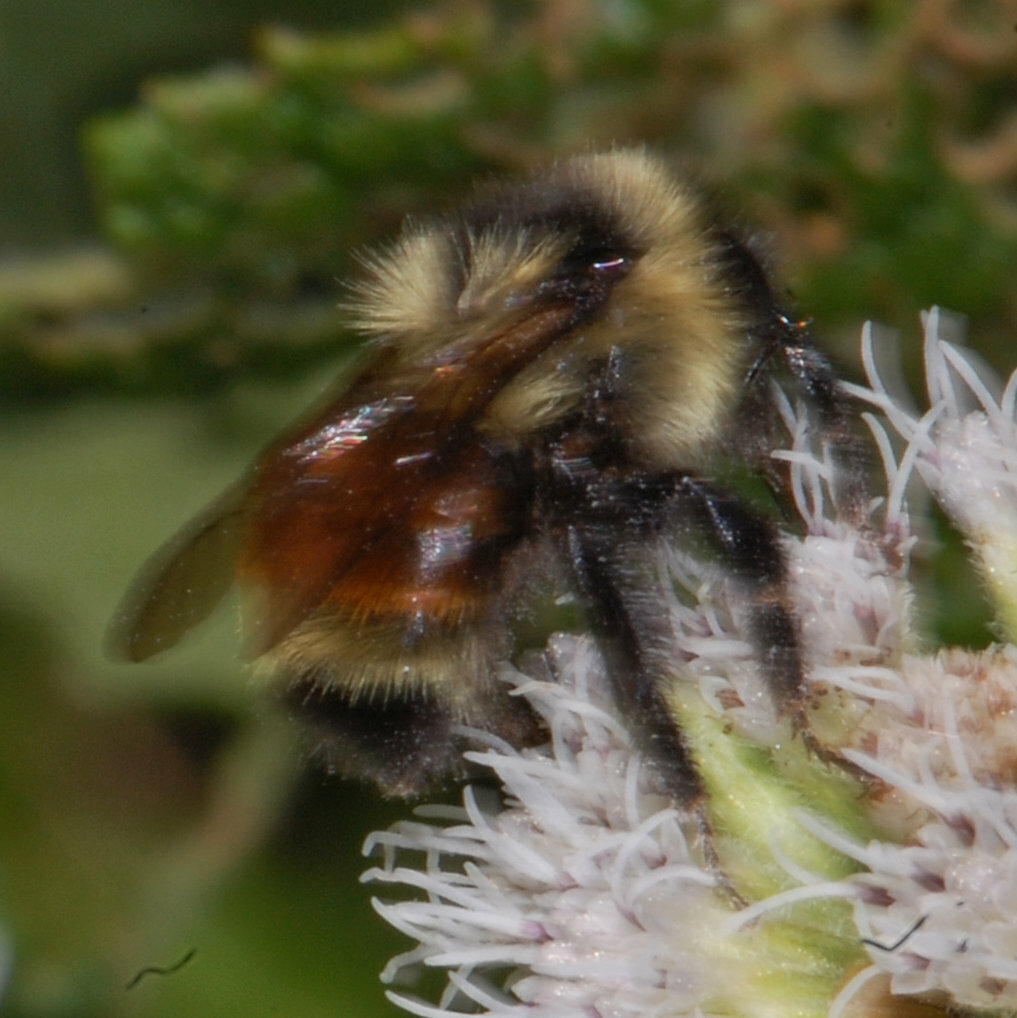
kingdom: Animalia
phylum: Arthropoda
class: Insecta
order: Hymenoptera
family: Apidae
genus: Bombus
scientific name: Bombus ternarius
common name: Tri-colored bumble bee
